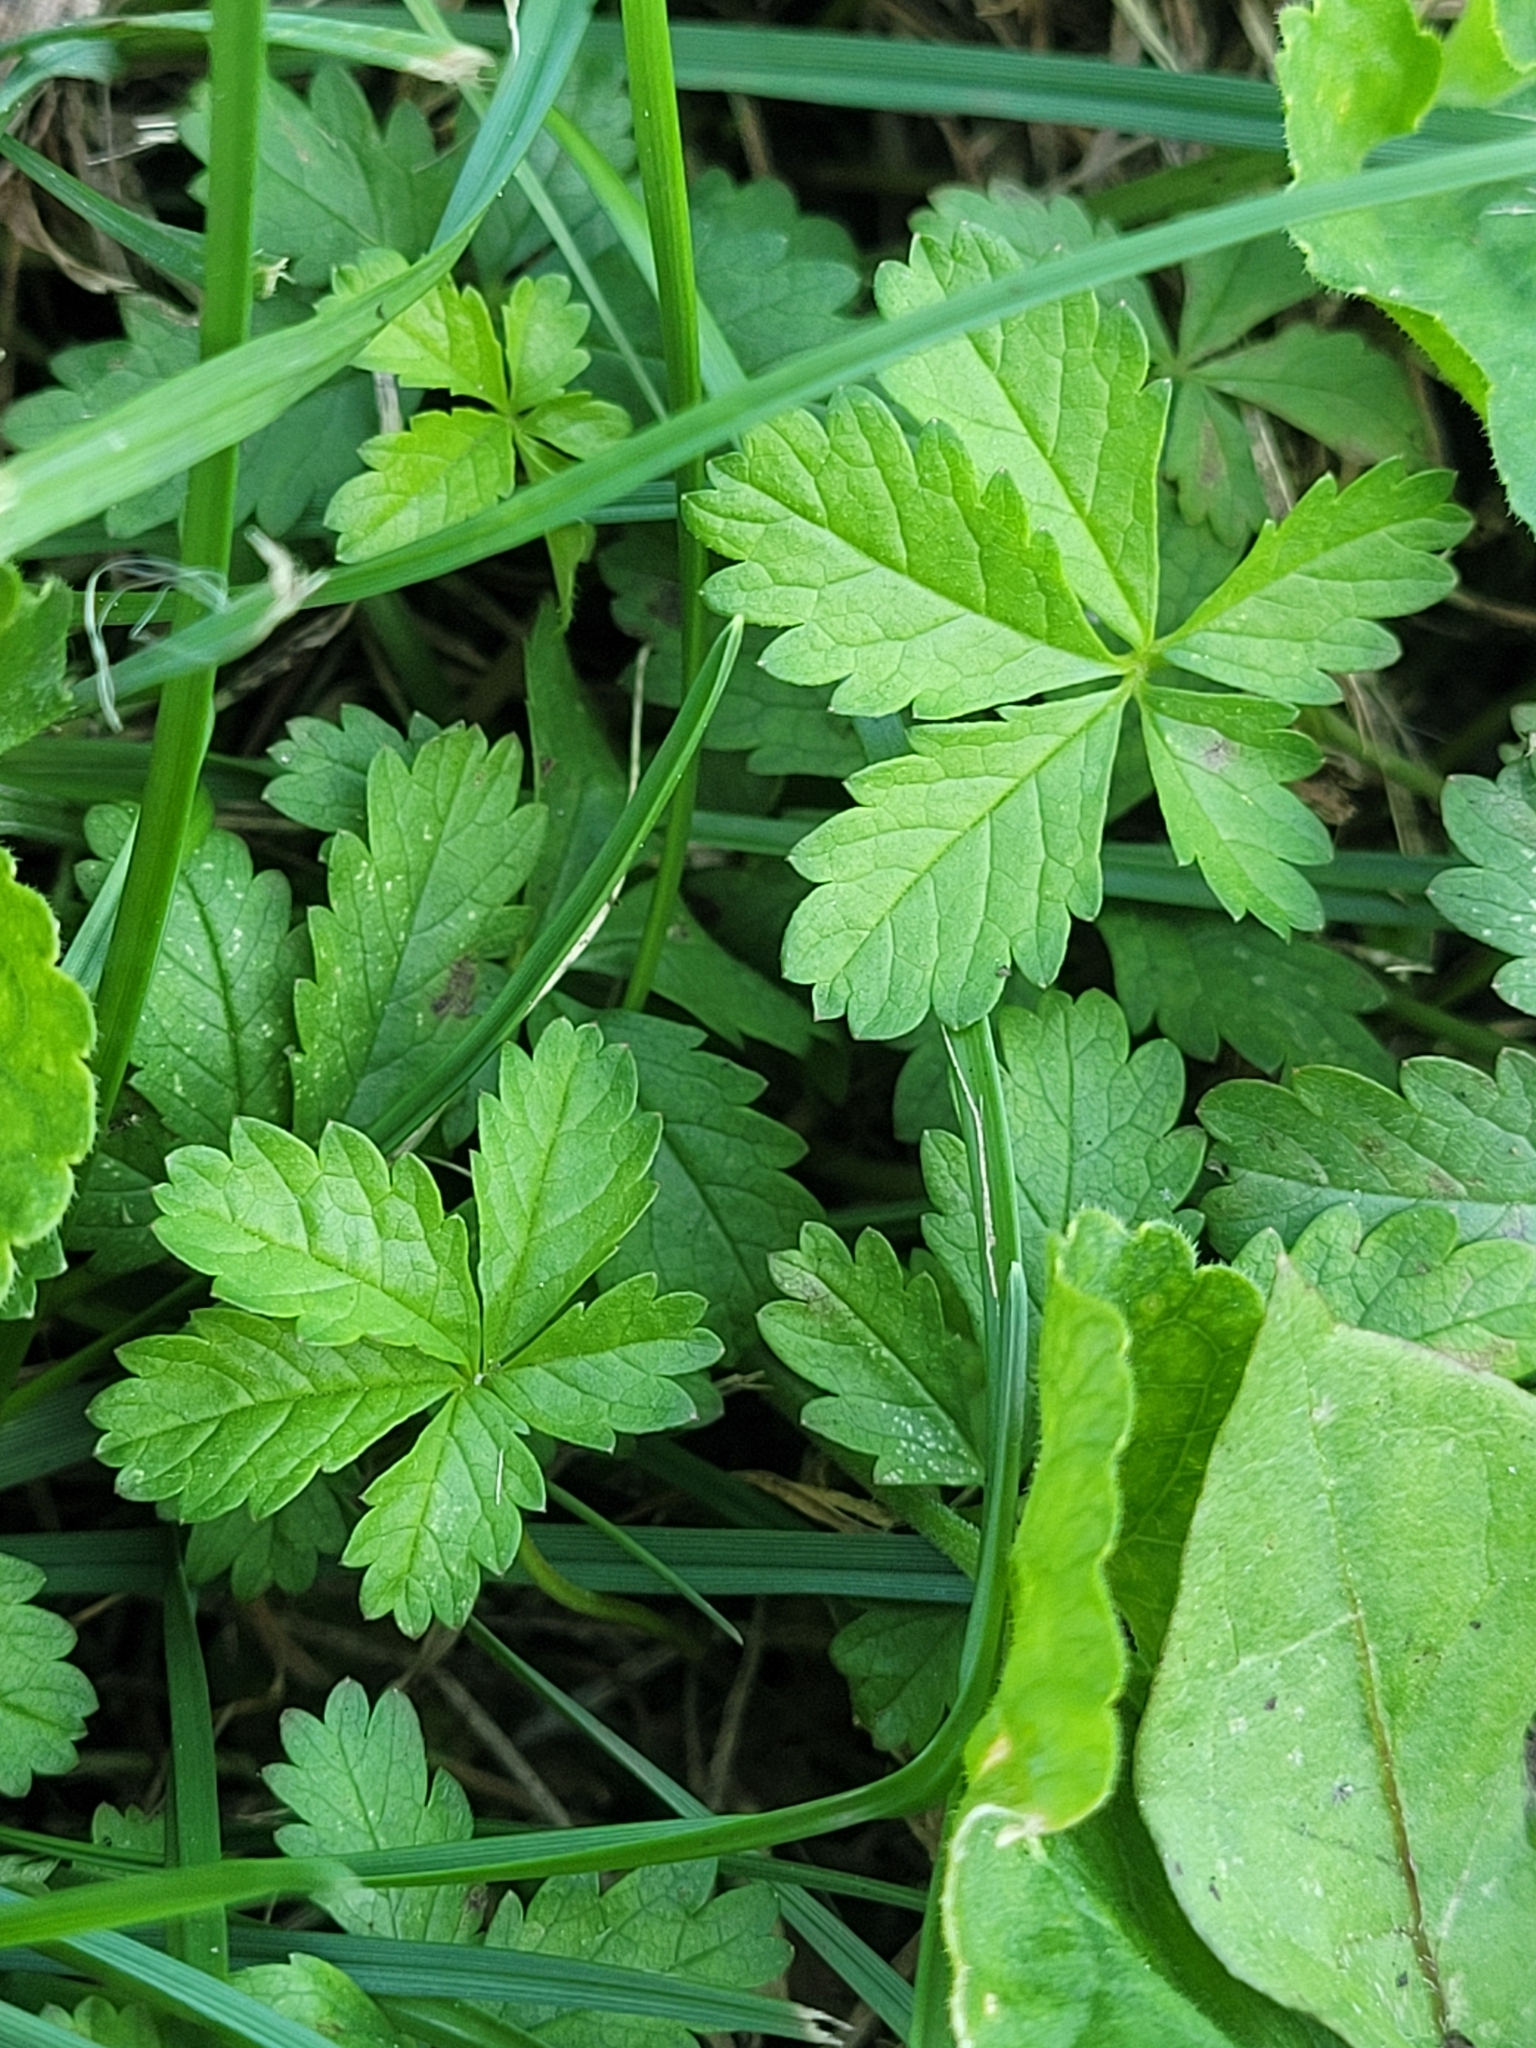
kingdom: Plantae
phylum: Tracheophyta
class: Magnoliopsida
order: Rosales
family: Rosaceae
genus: Potentilla
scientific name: Potentilla reptans
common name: Creeping cinquefoil
